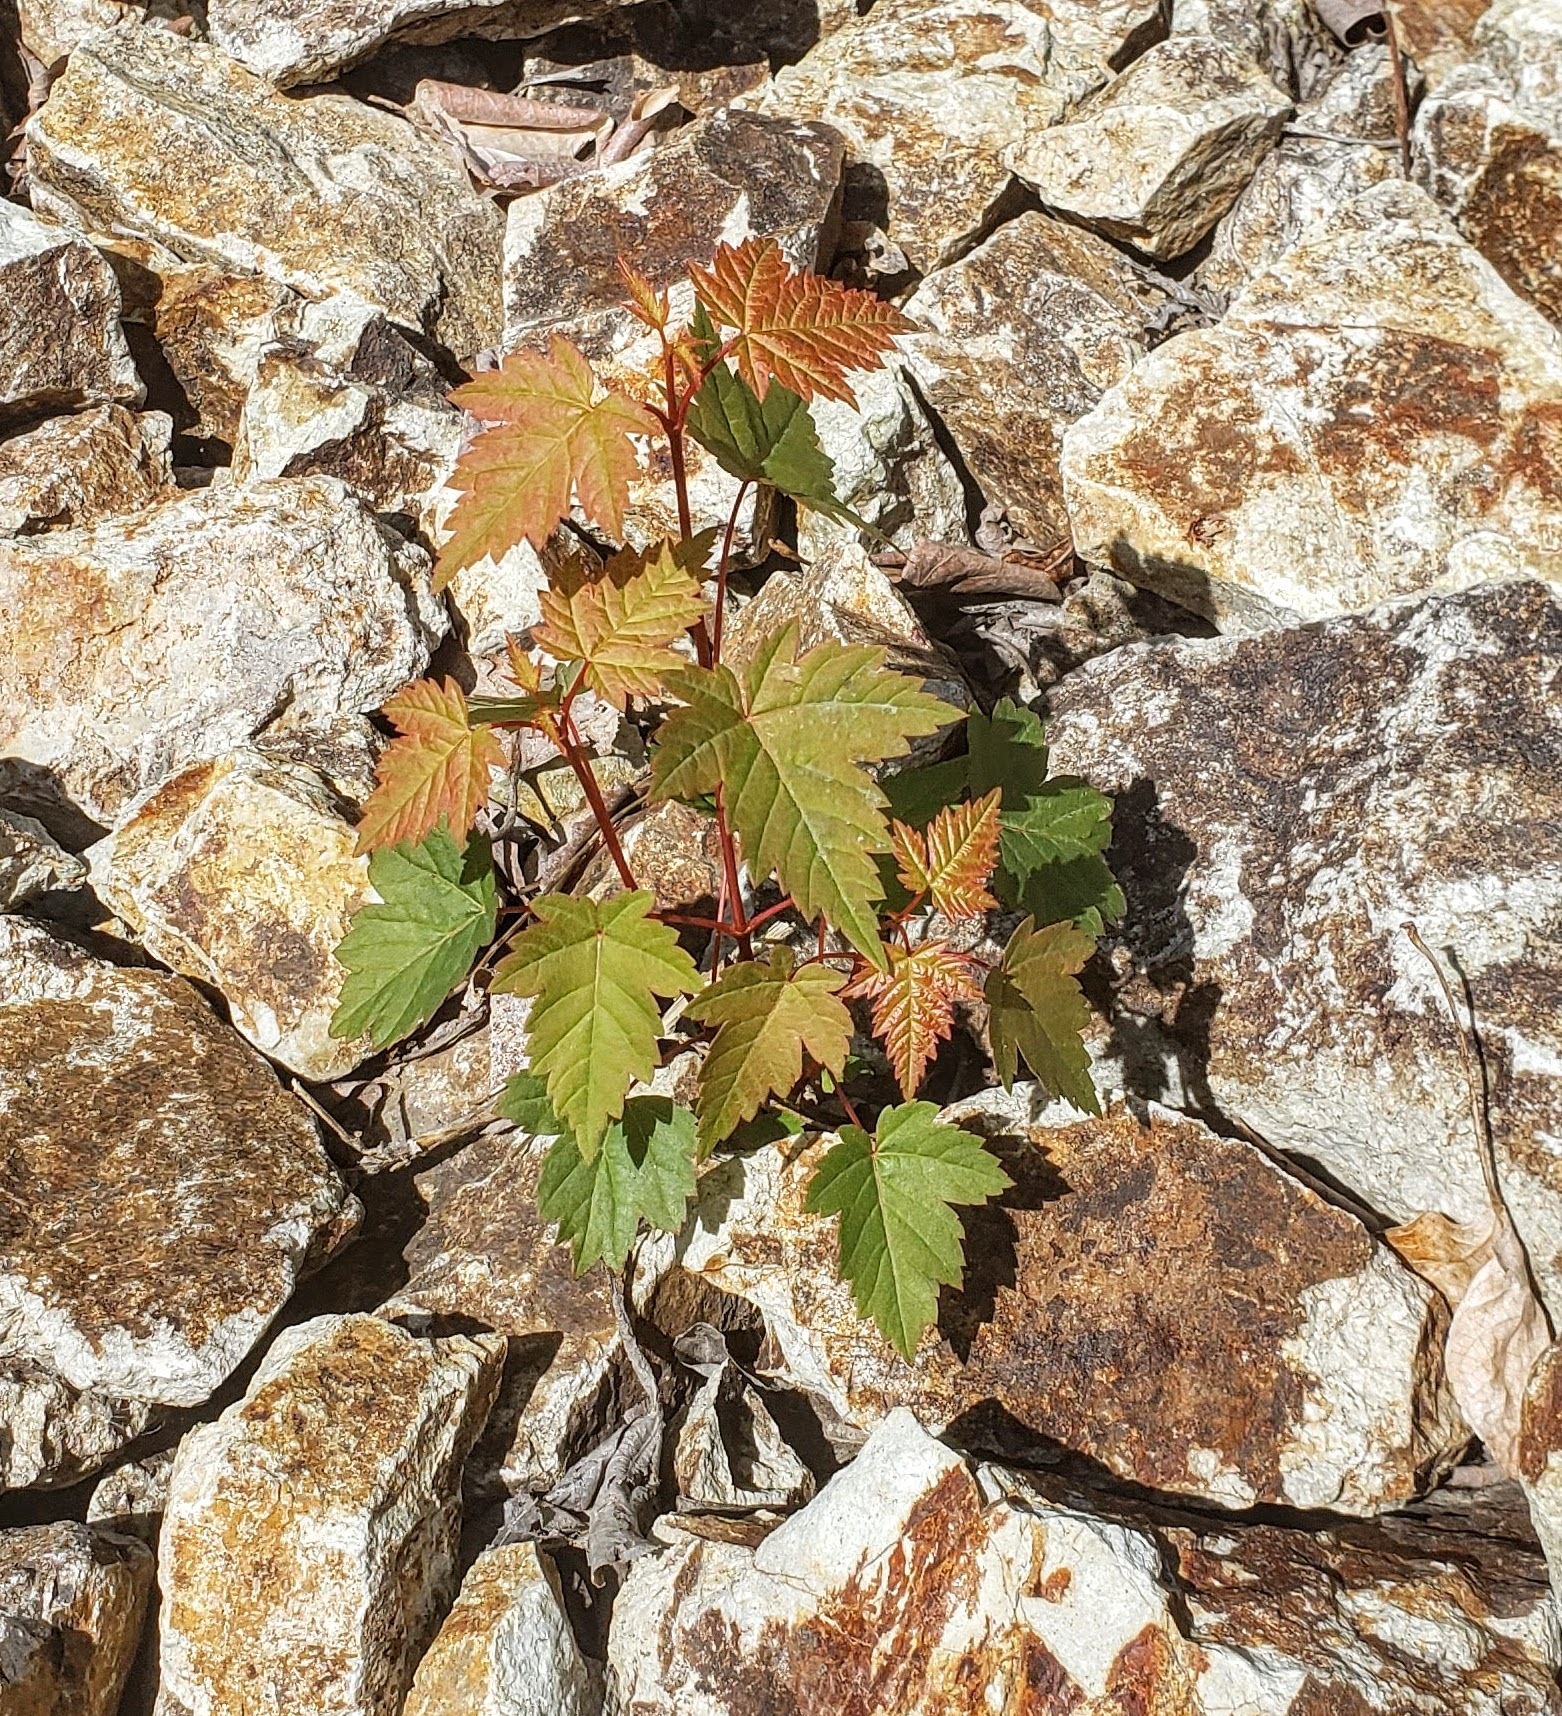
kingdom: Plantae
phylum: Tracheophyta
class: Magnoliopsida
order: Sapindales
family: Sapindaceae
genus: Acer
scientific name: Acer glabrum
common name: Rocky mountain maple
